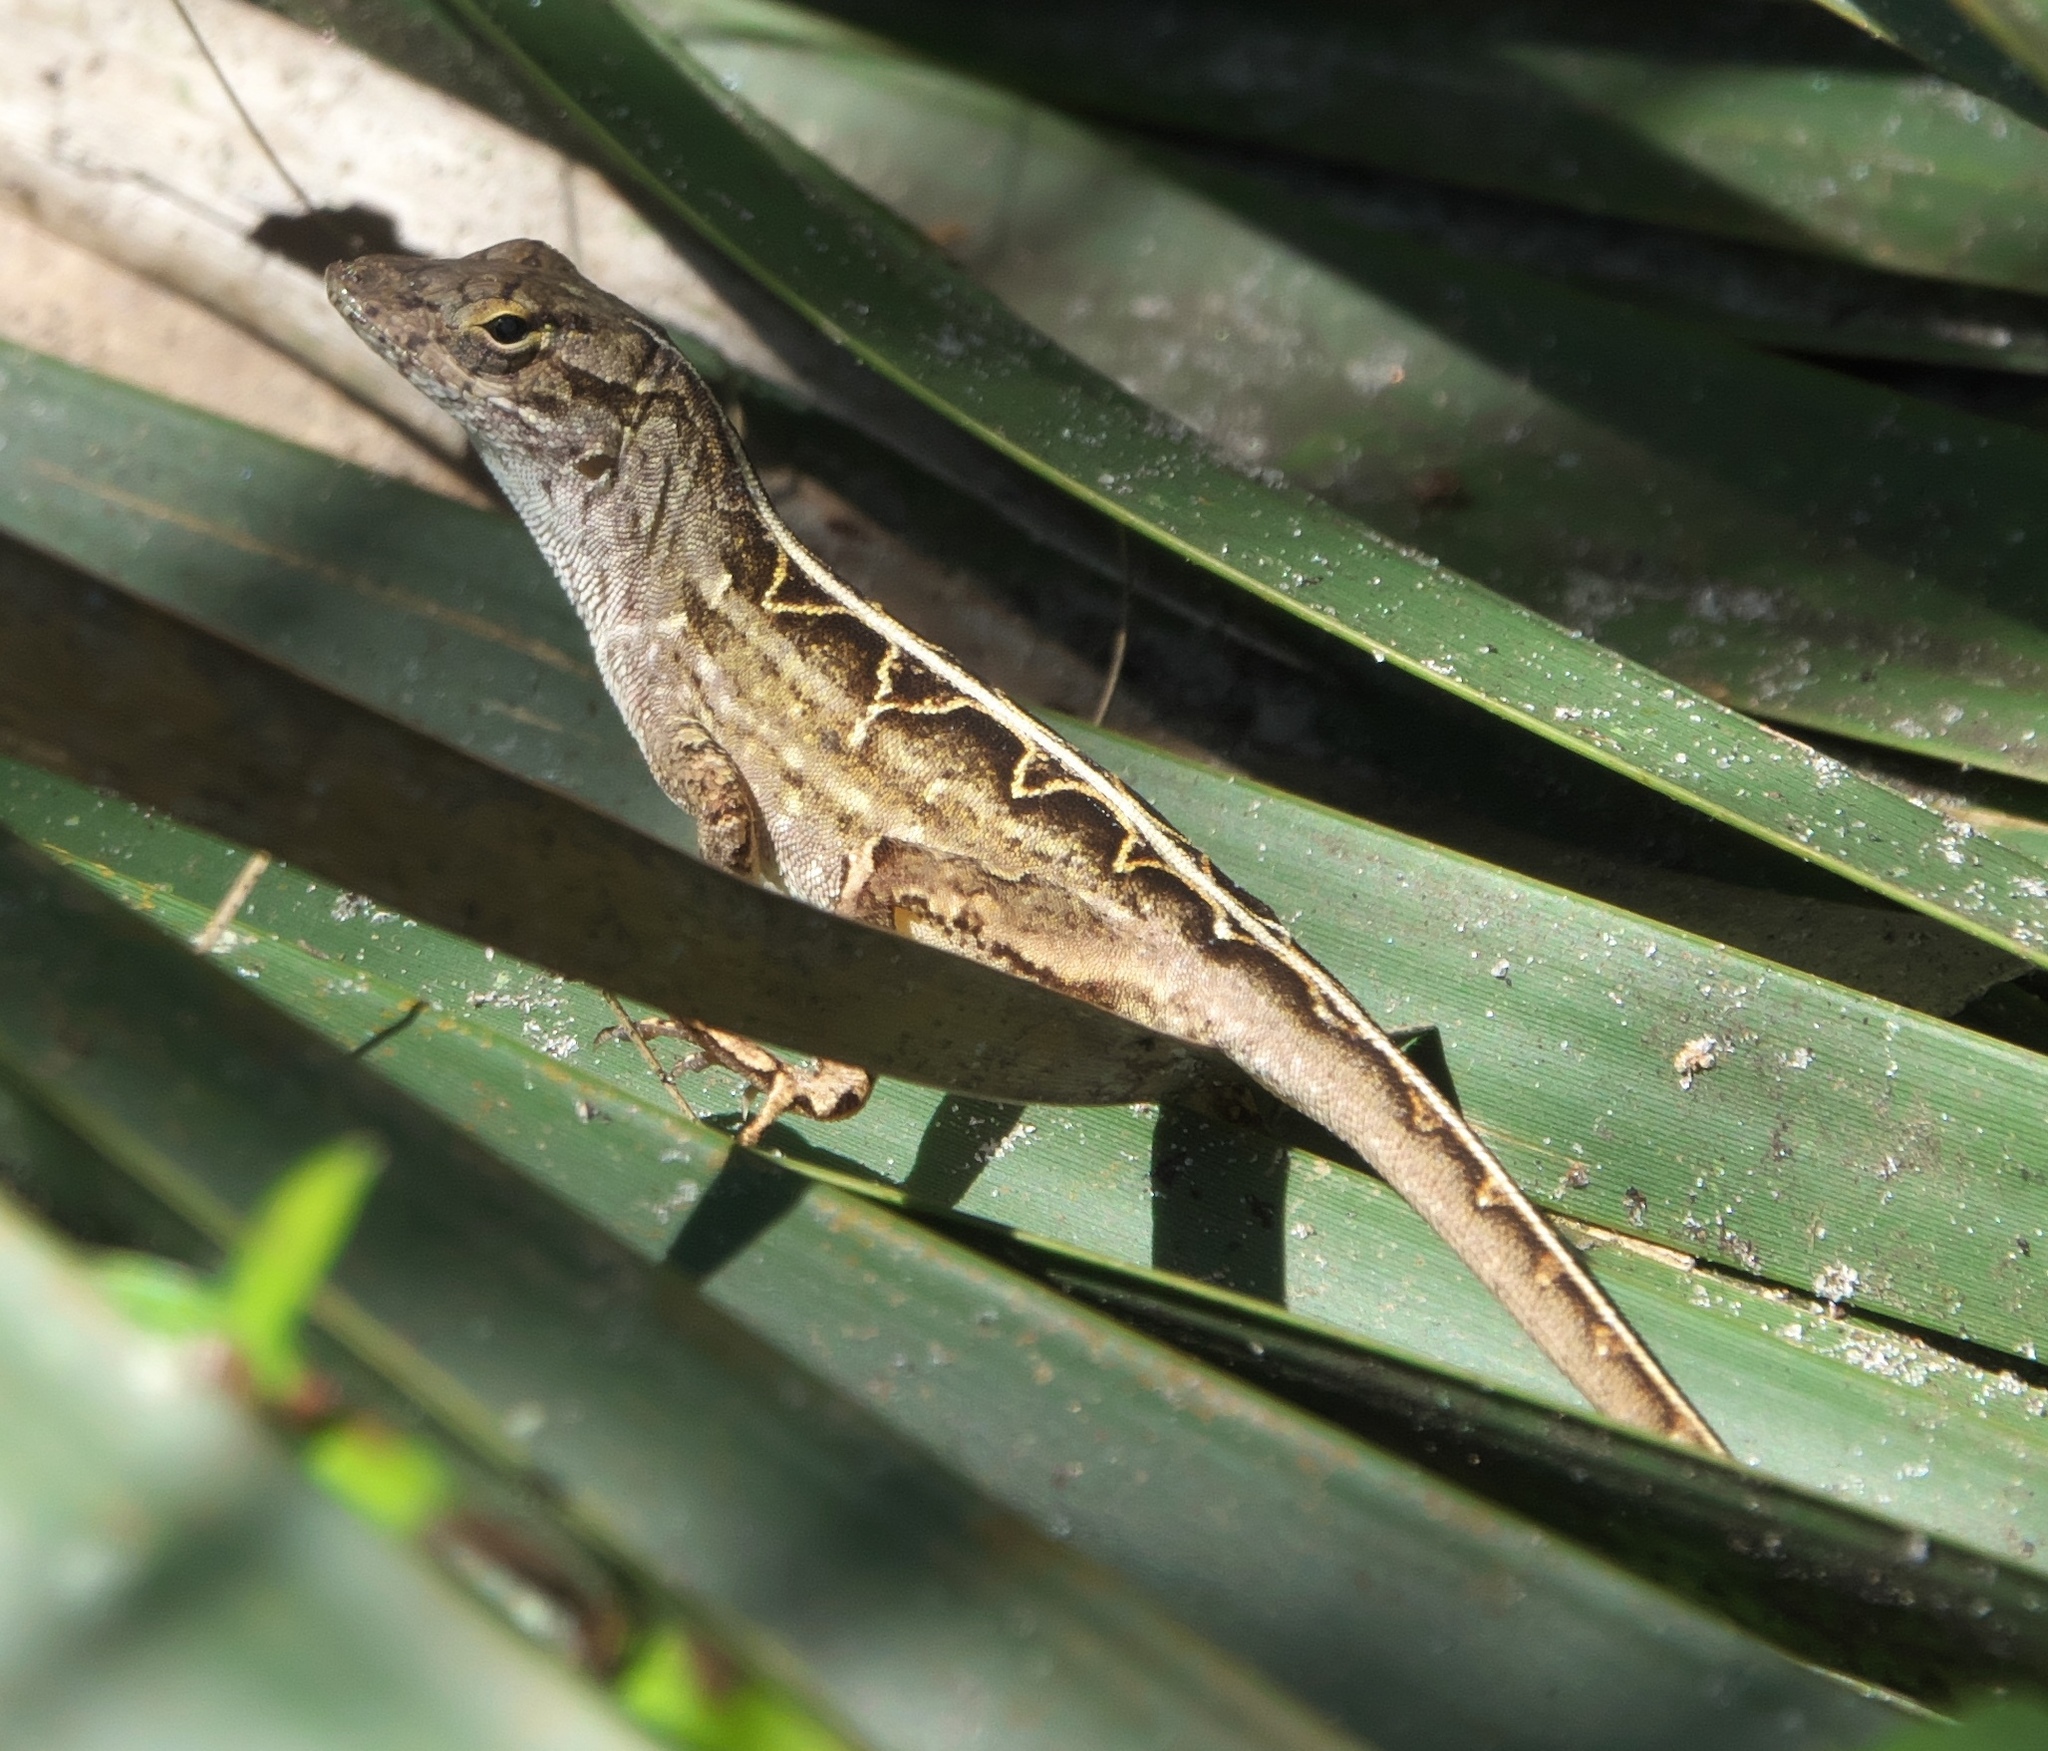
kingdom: Animalia
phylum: Chordata
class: Squamata
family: Dactyloidae
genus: Anolis
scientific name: Anolis sagrei
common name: Brown anole
